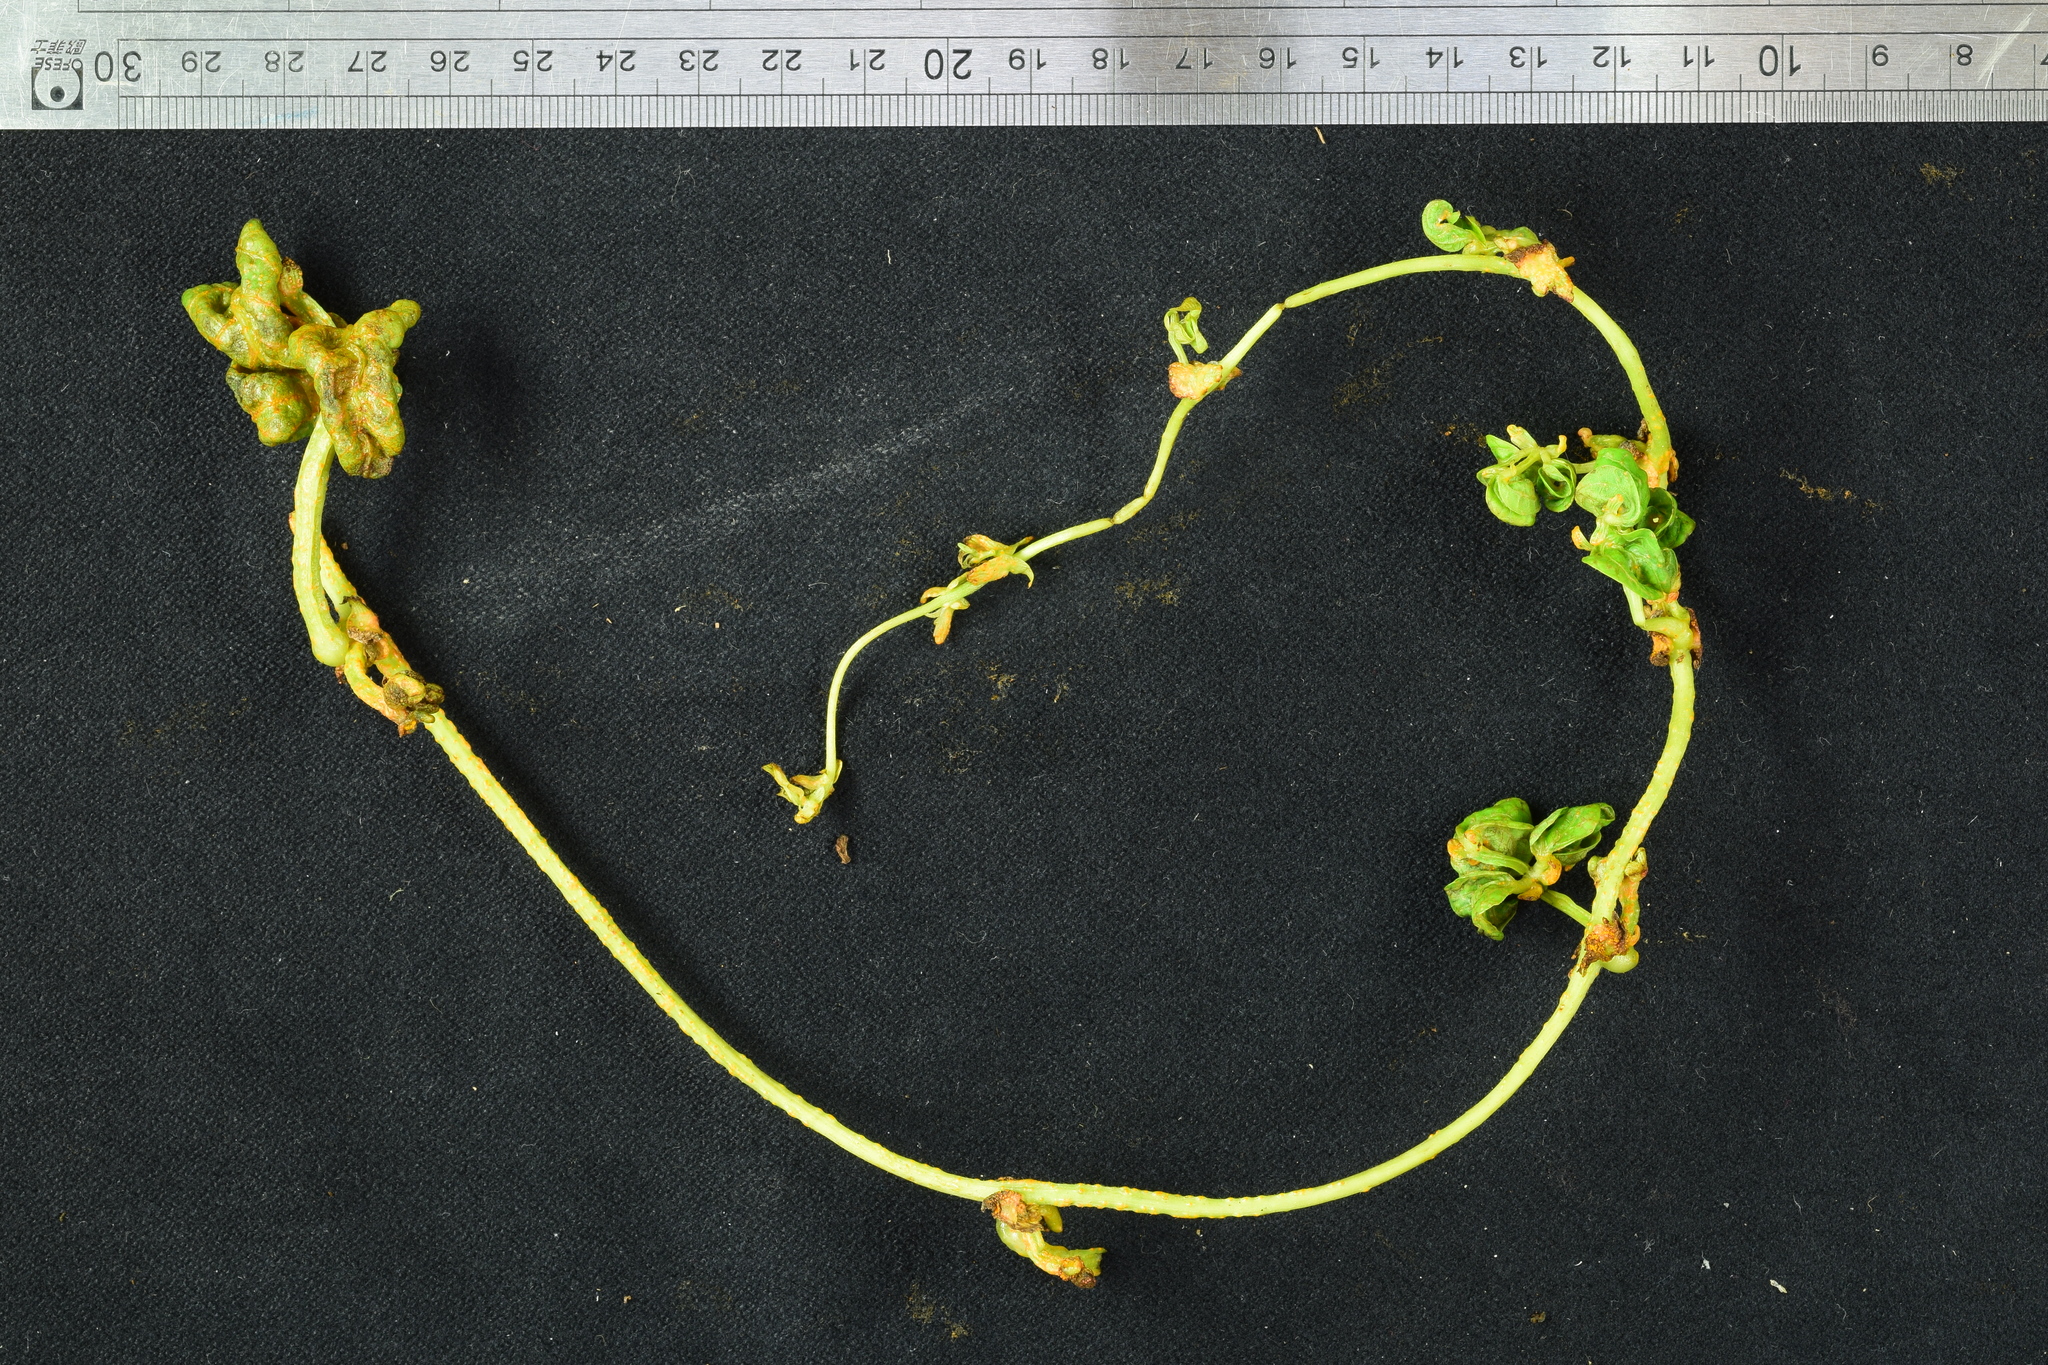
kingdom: Fungi
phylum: Chytridiomycota
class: Chytridiomycetes
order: Chytridiales
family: Synchytriaceae
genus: Synchytrium
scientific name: Synchytrium psophocarpi
